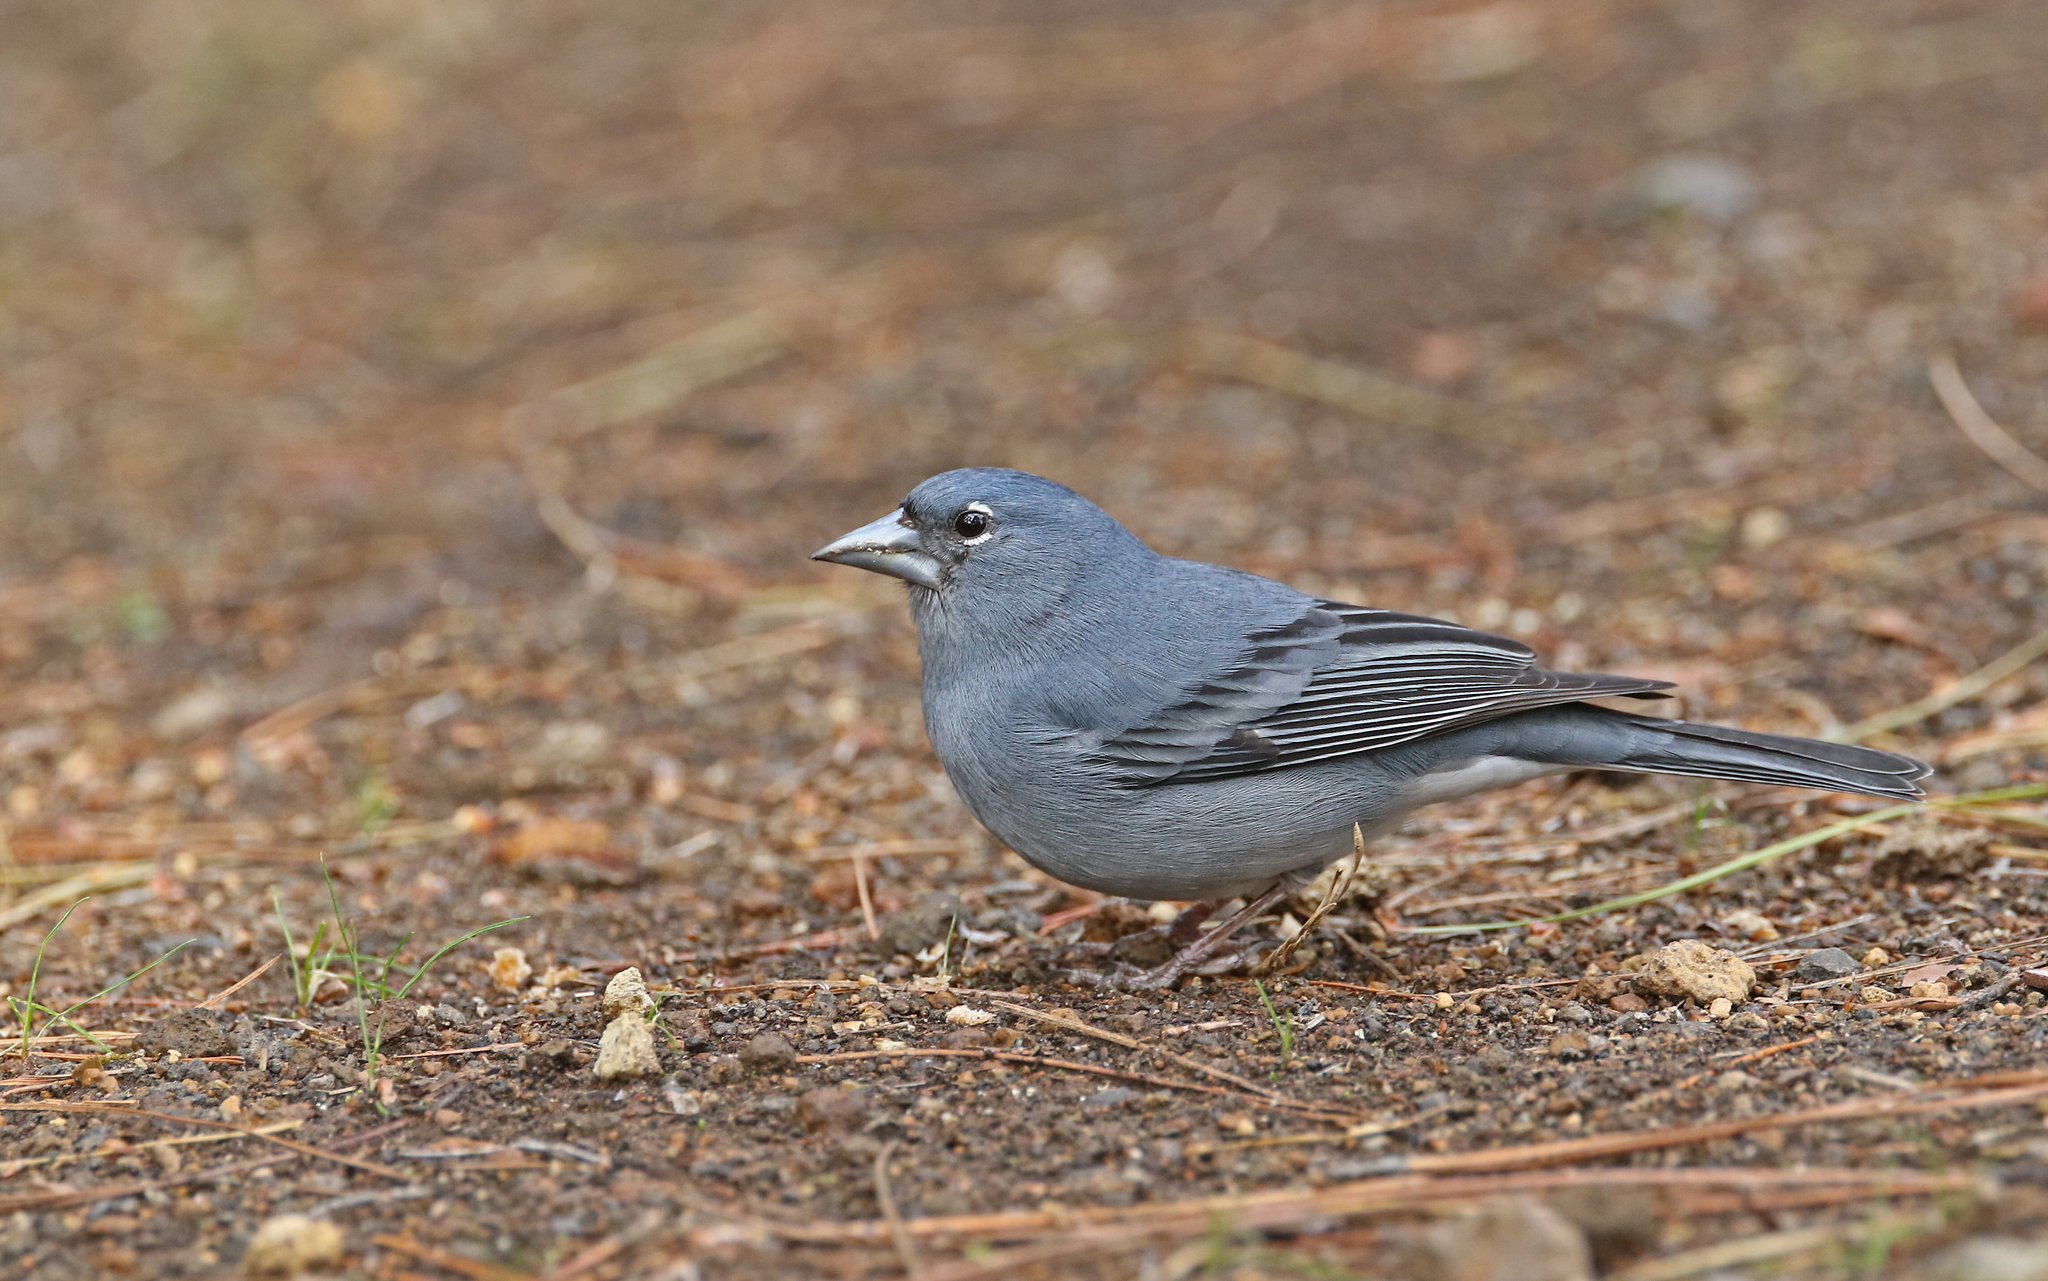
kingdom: Animalia
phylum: Chordata
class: Aves
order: Passeriformes
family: Fringillidae
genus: Fringilla
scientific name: Fringilla teydea
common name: Blue chaffinch
